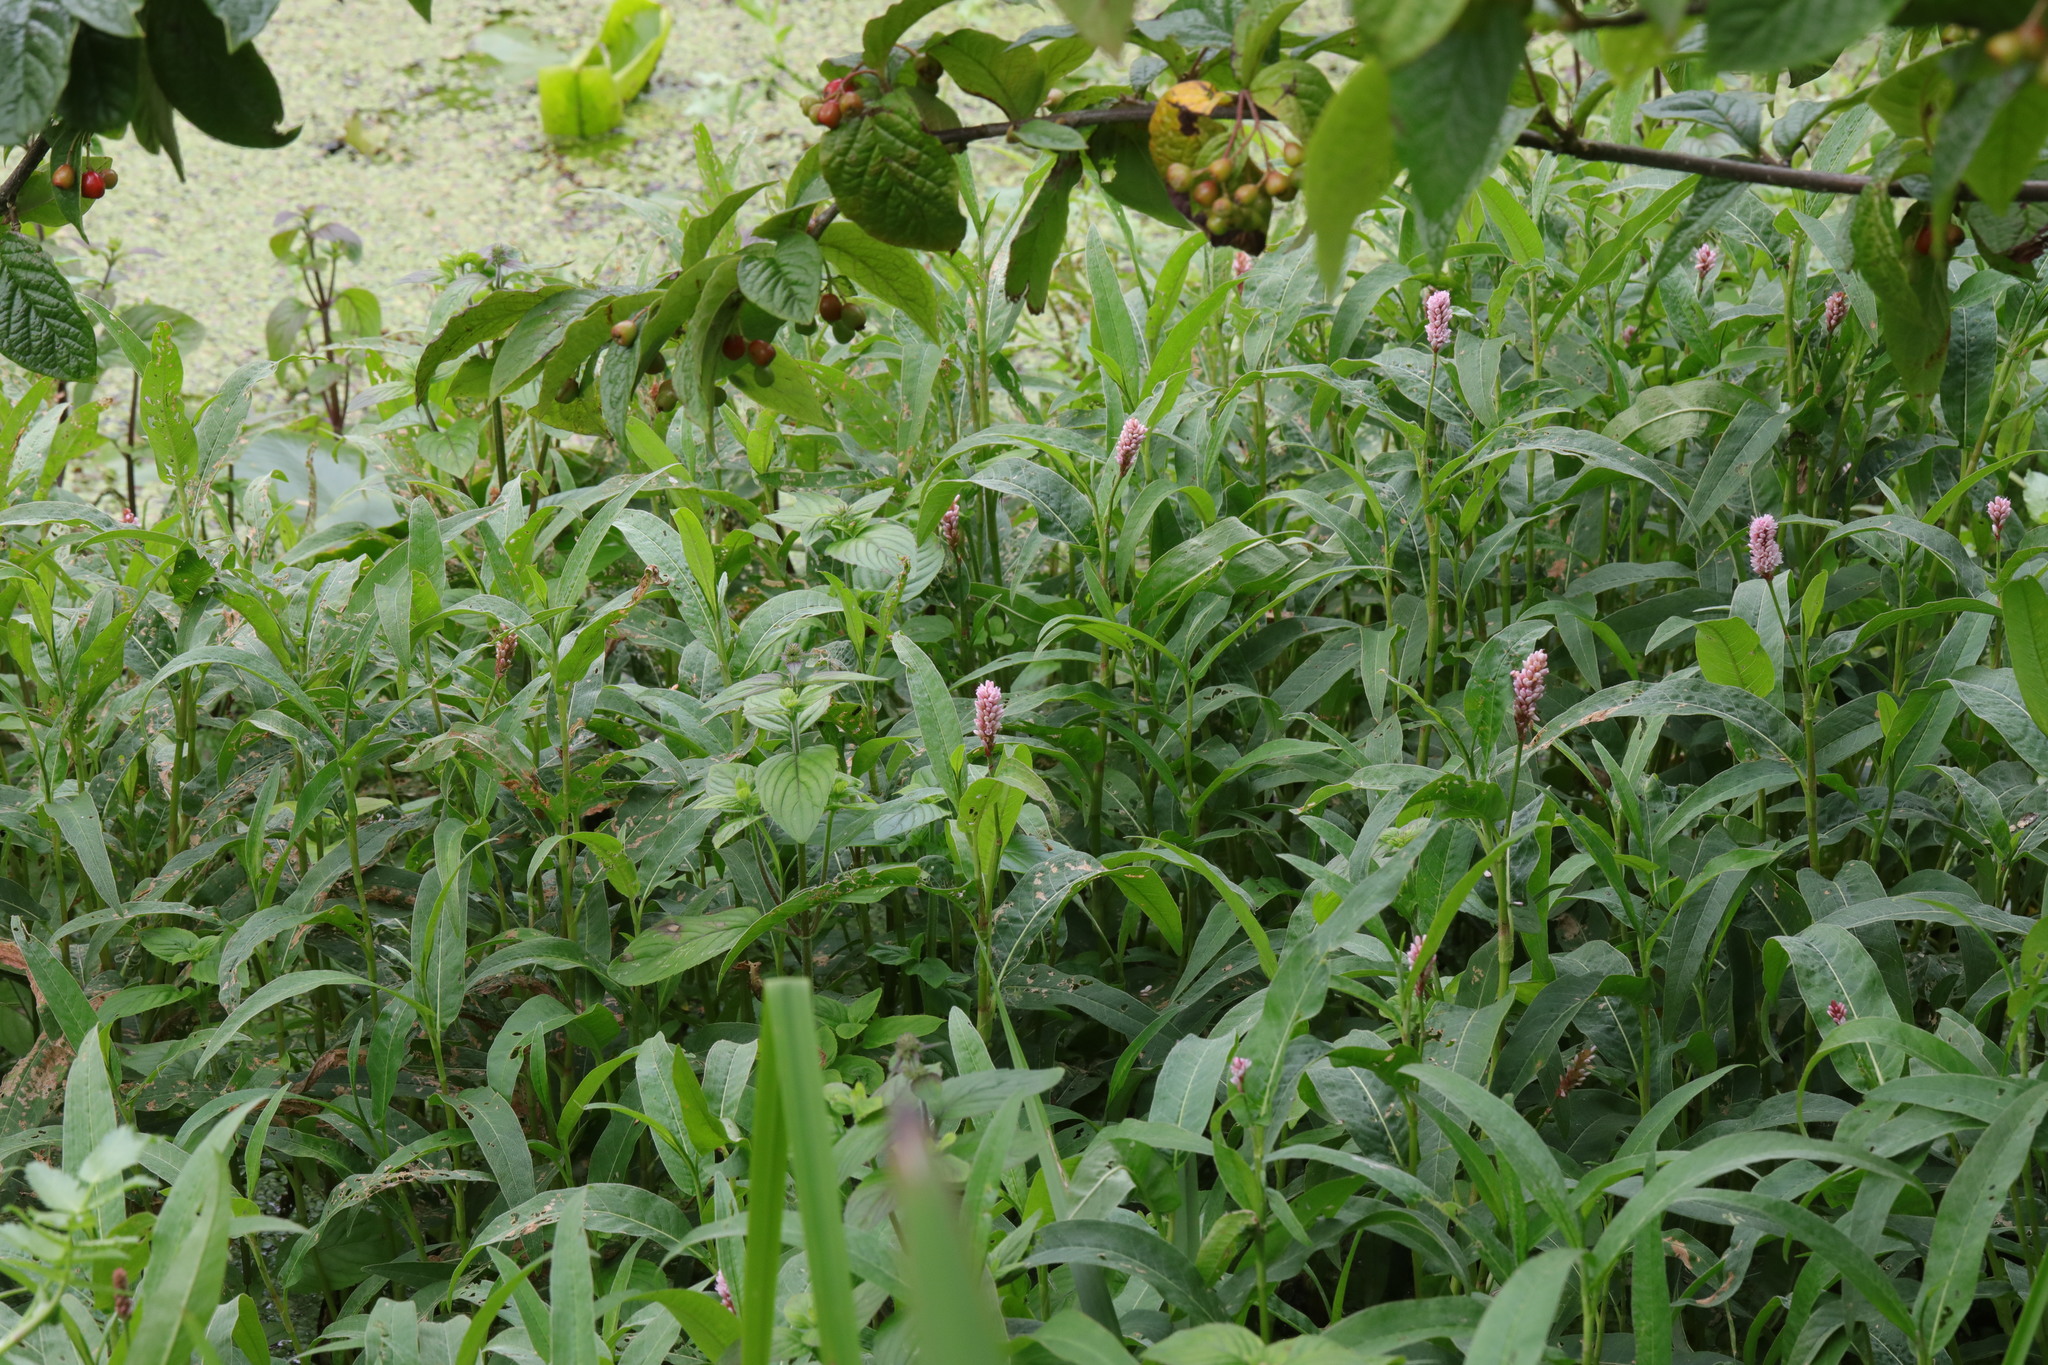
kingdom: Plantae
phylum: Tracheophyta
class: Magnoliopsida
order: Caryophyllales
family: Polygonaceae
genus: Persicaria
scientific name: Persicaria amphibia
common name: Amphibious bistort
